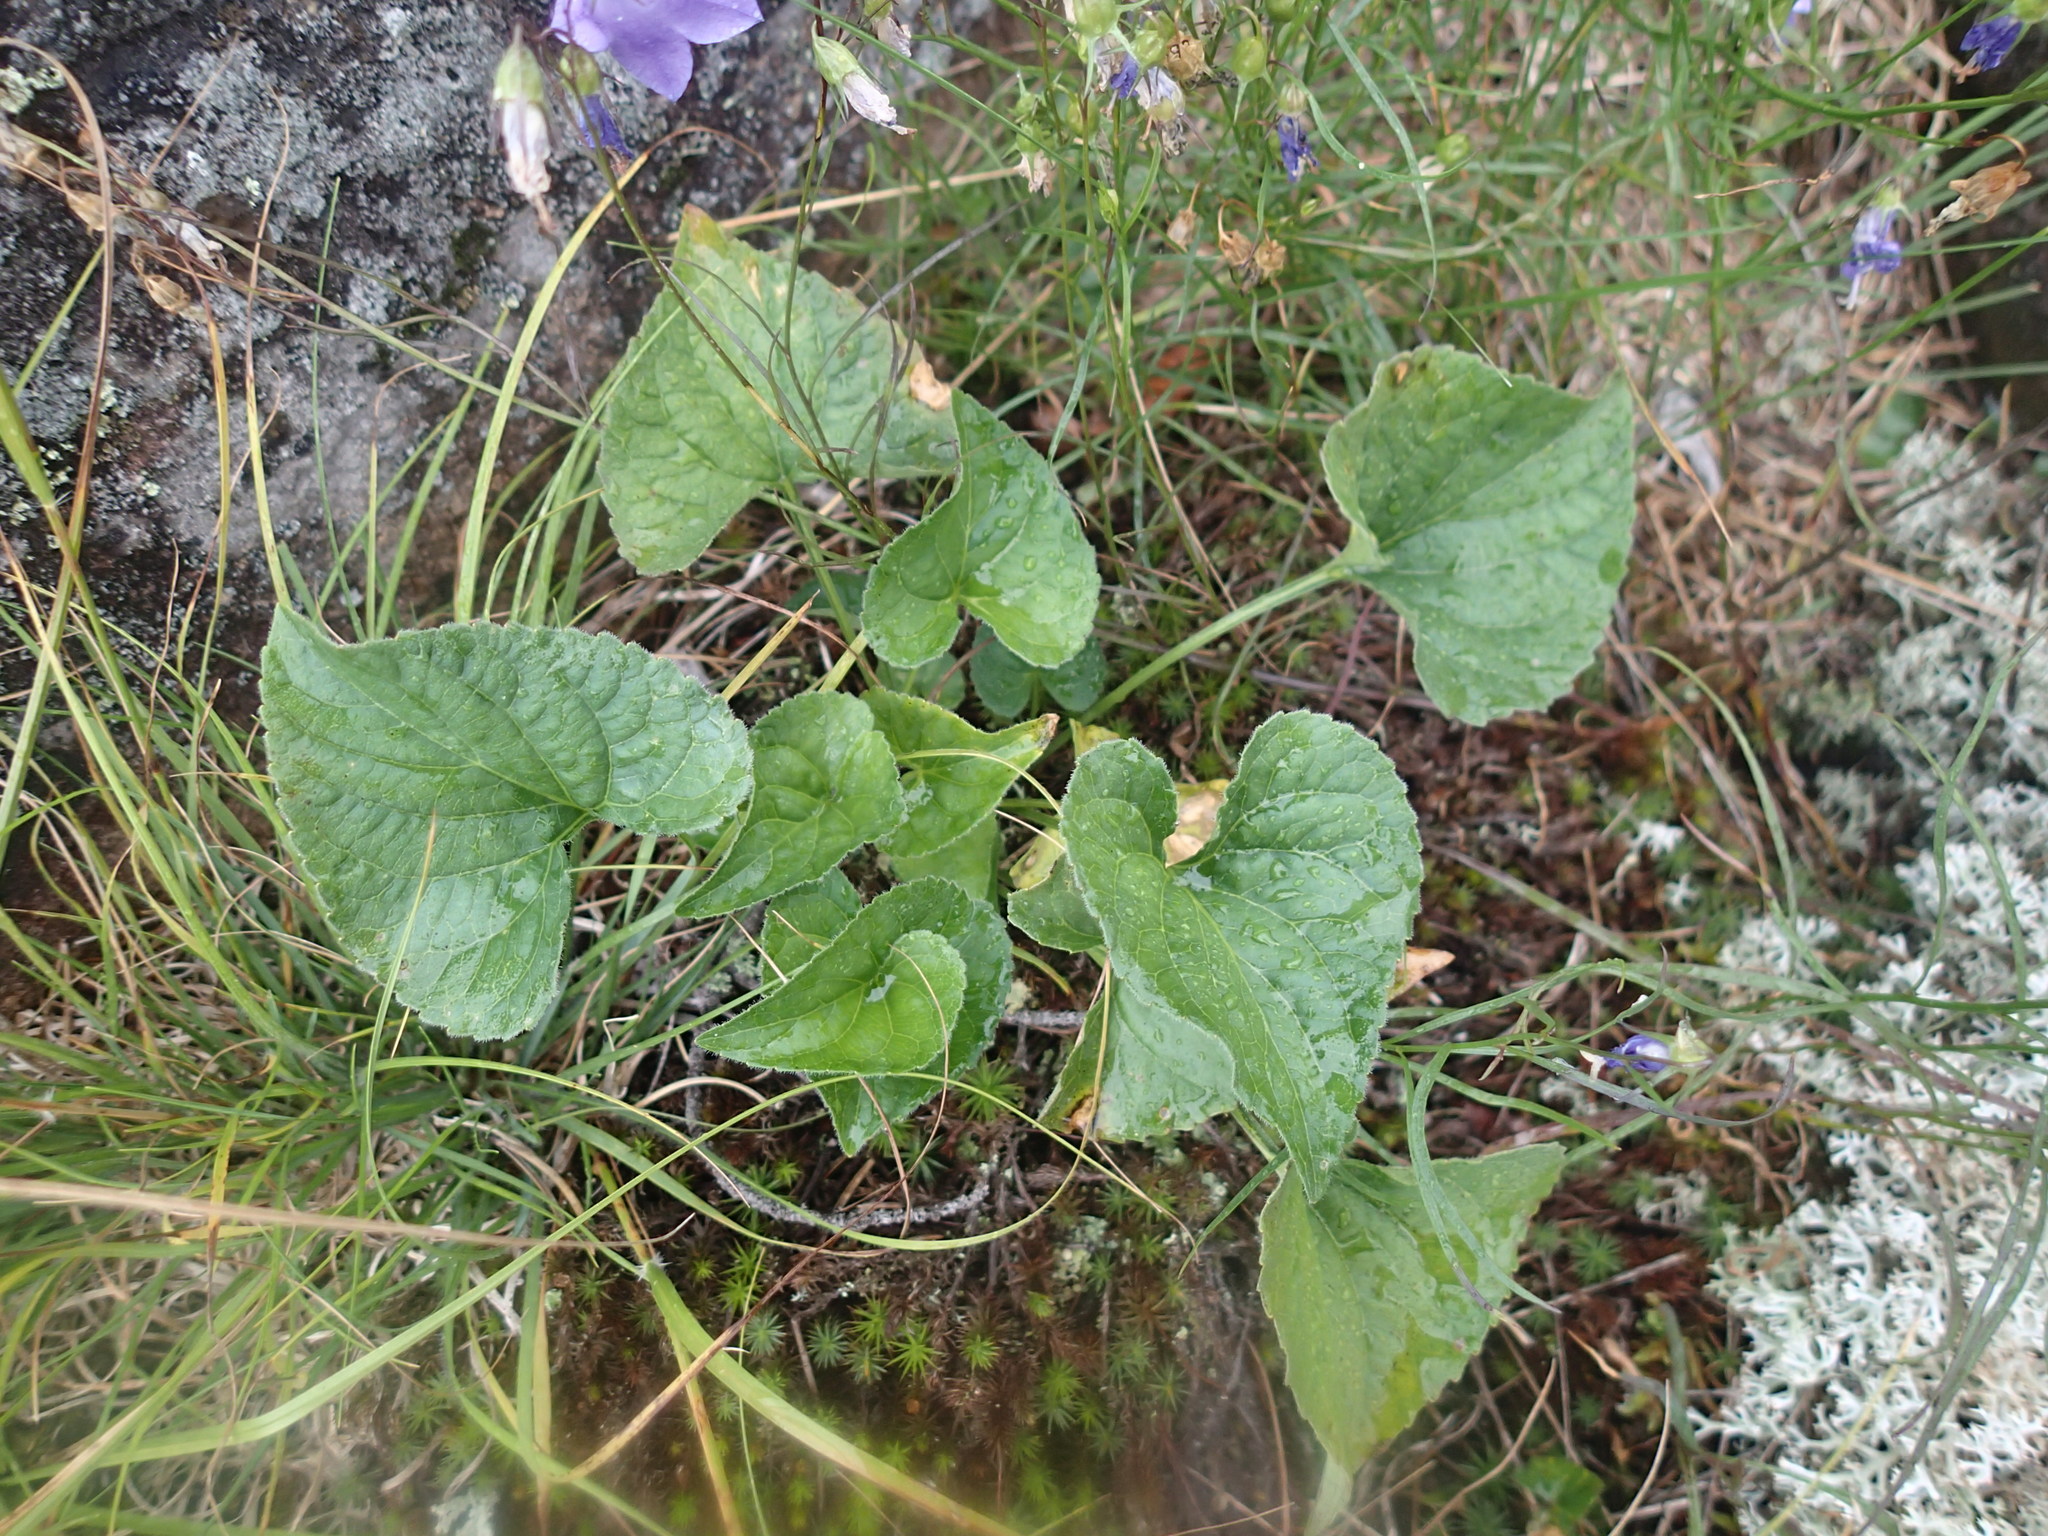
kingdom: Plantae
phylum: Tracheophyta
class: Magnoliopsida
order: Malpighiales
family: Violaceae
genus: Viola
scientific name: Viola novae-angliae
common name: New england blue violet
